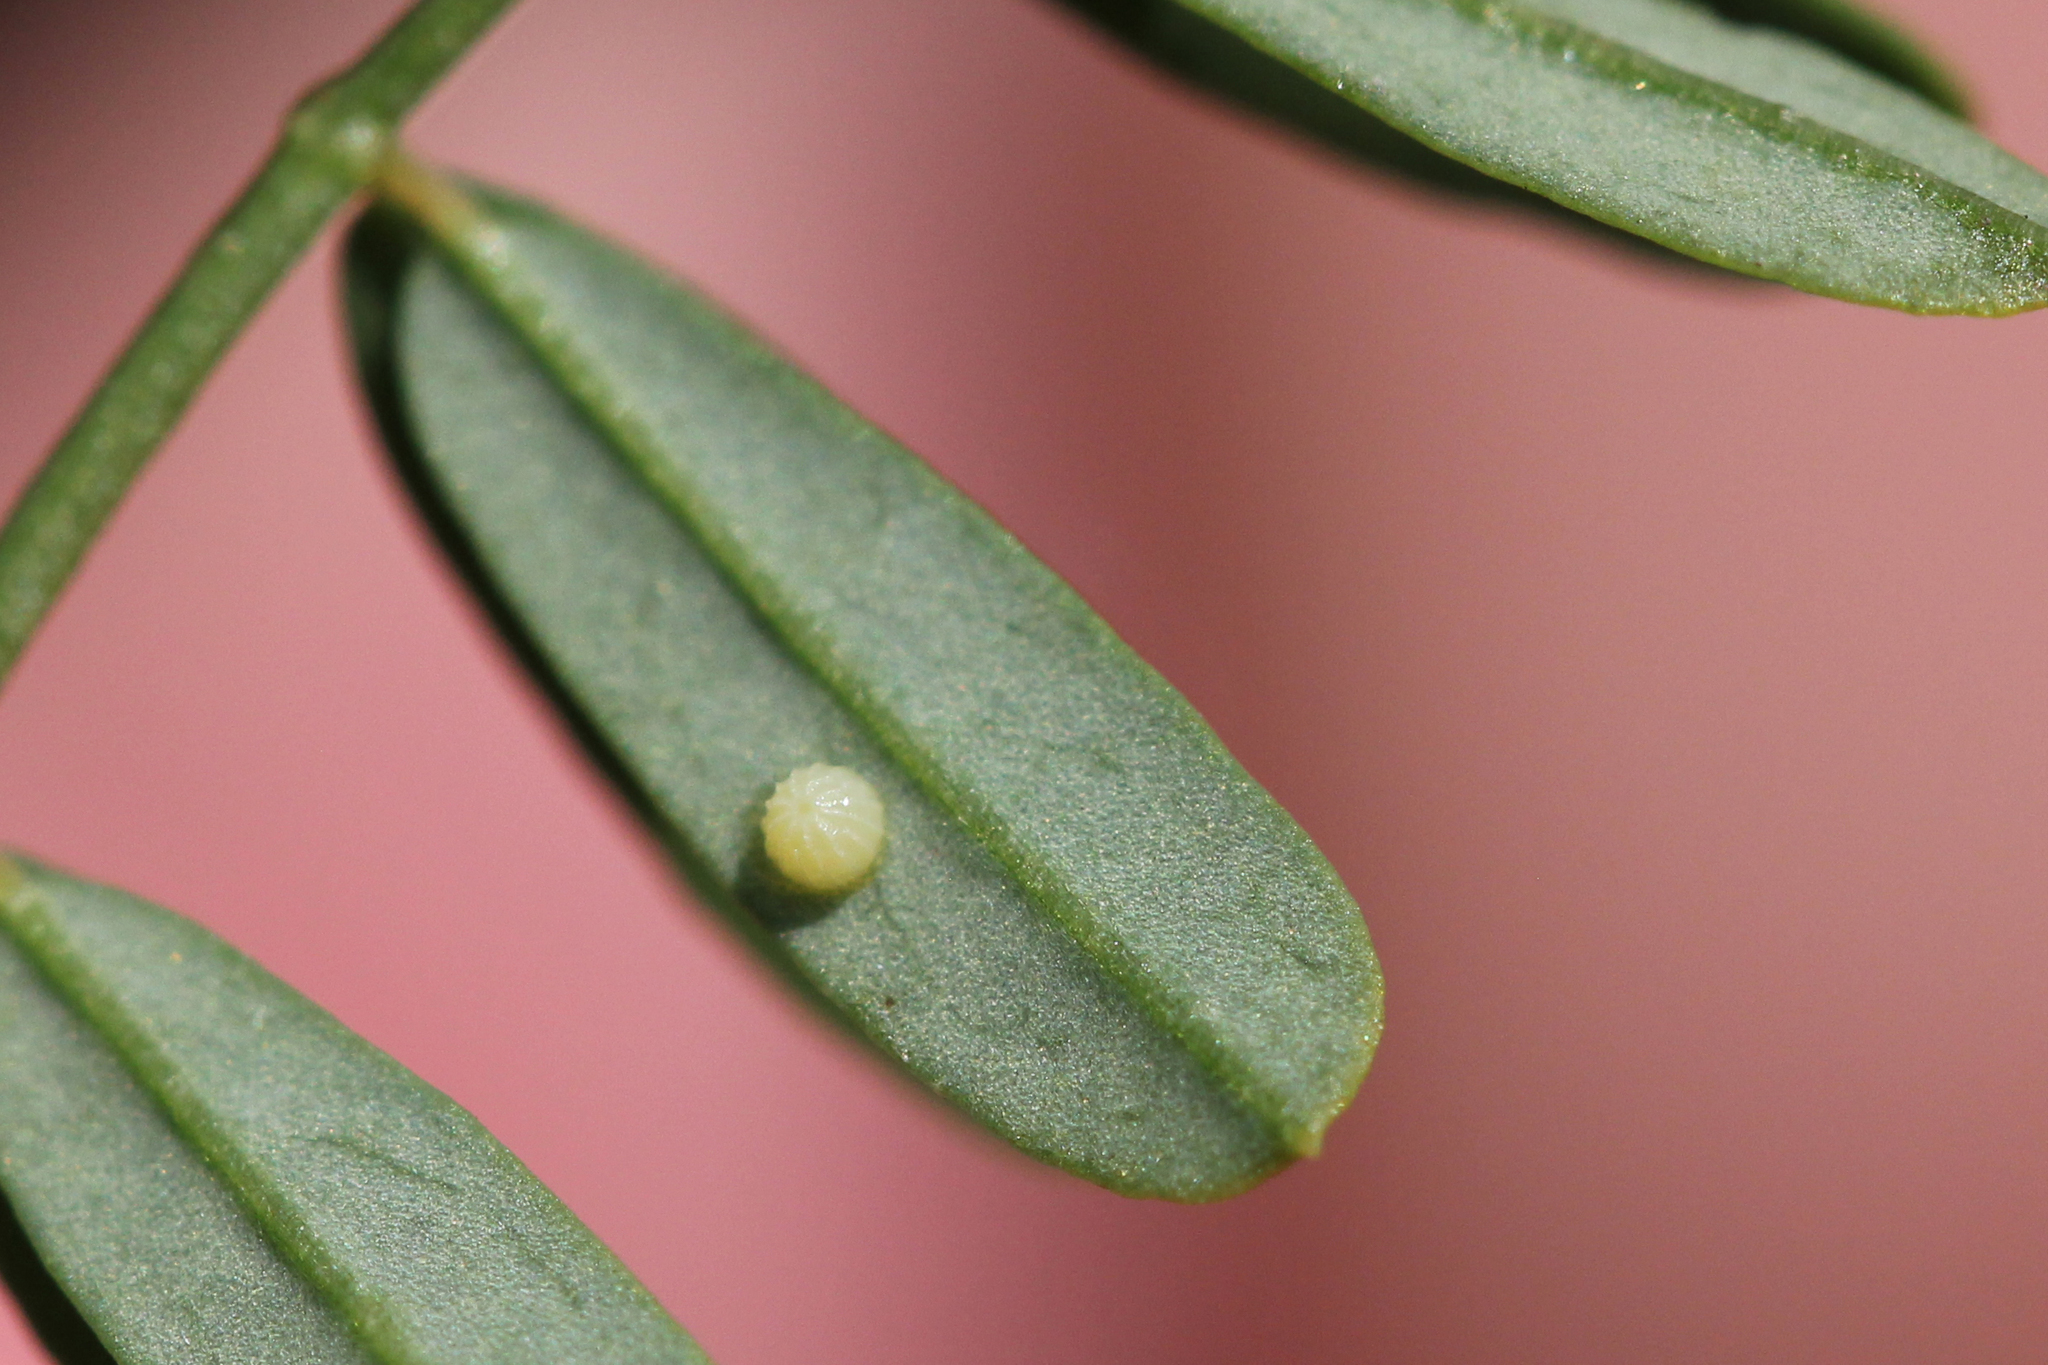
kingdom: Animalia
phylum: Arthropoda
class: Insecta
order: Lepidoptera
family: Hesperiidae
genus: Erynnis
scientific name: Erynnis baptisiae
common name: Wild indigo duskywing
